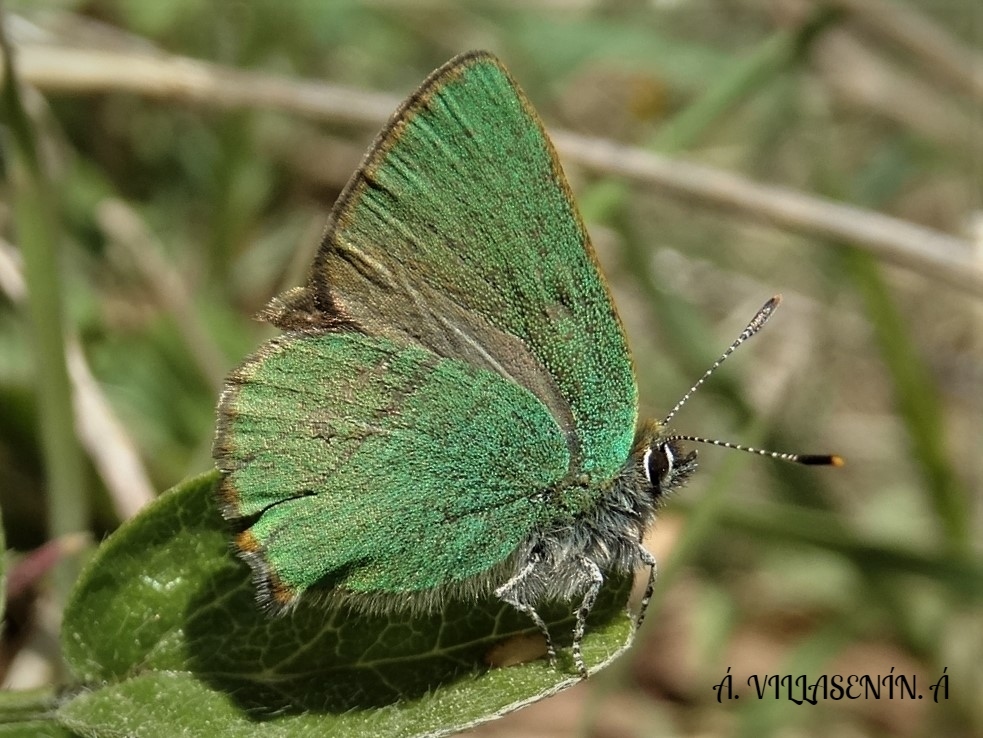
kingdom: Animalia
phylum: Arthropoda
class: Insecta
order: Lepidoptera
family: Lycaenidae
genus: Callophrys
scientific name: Callophrys rubi
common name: Green hairstreak
